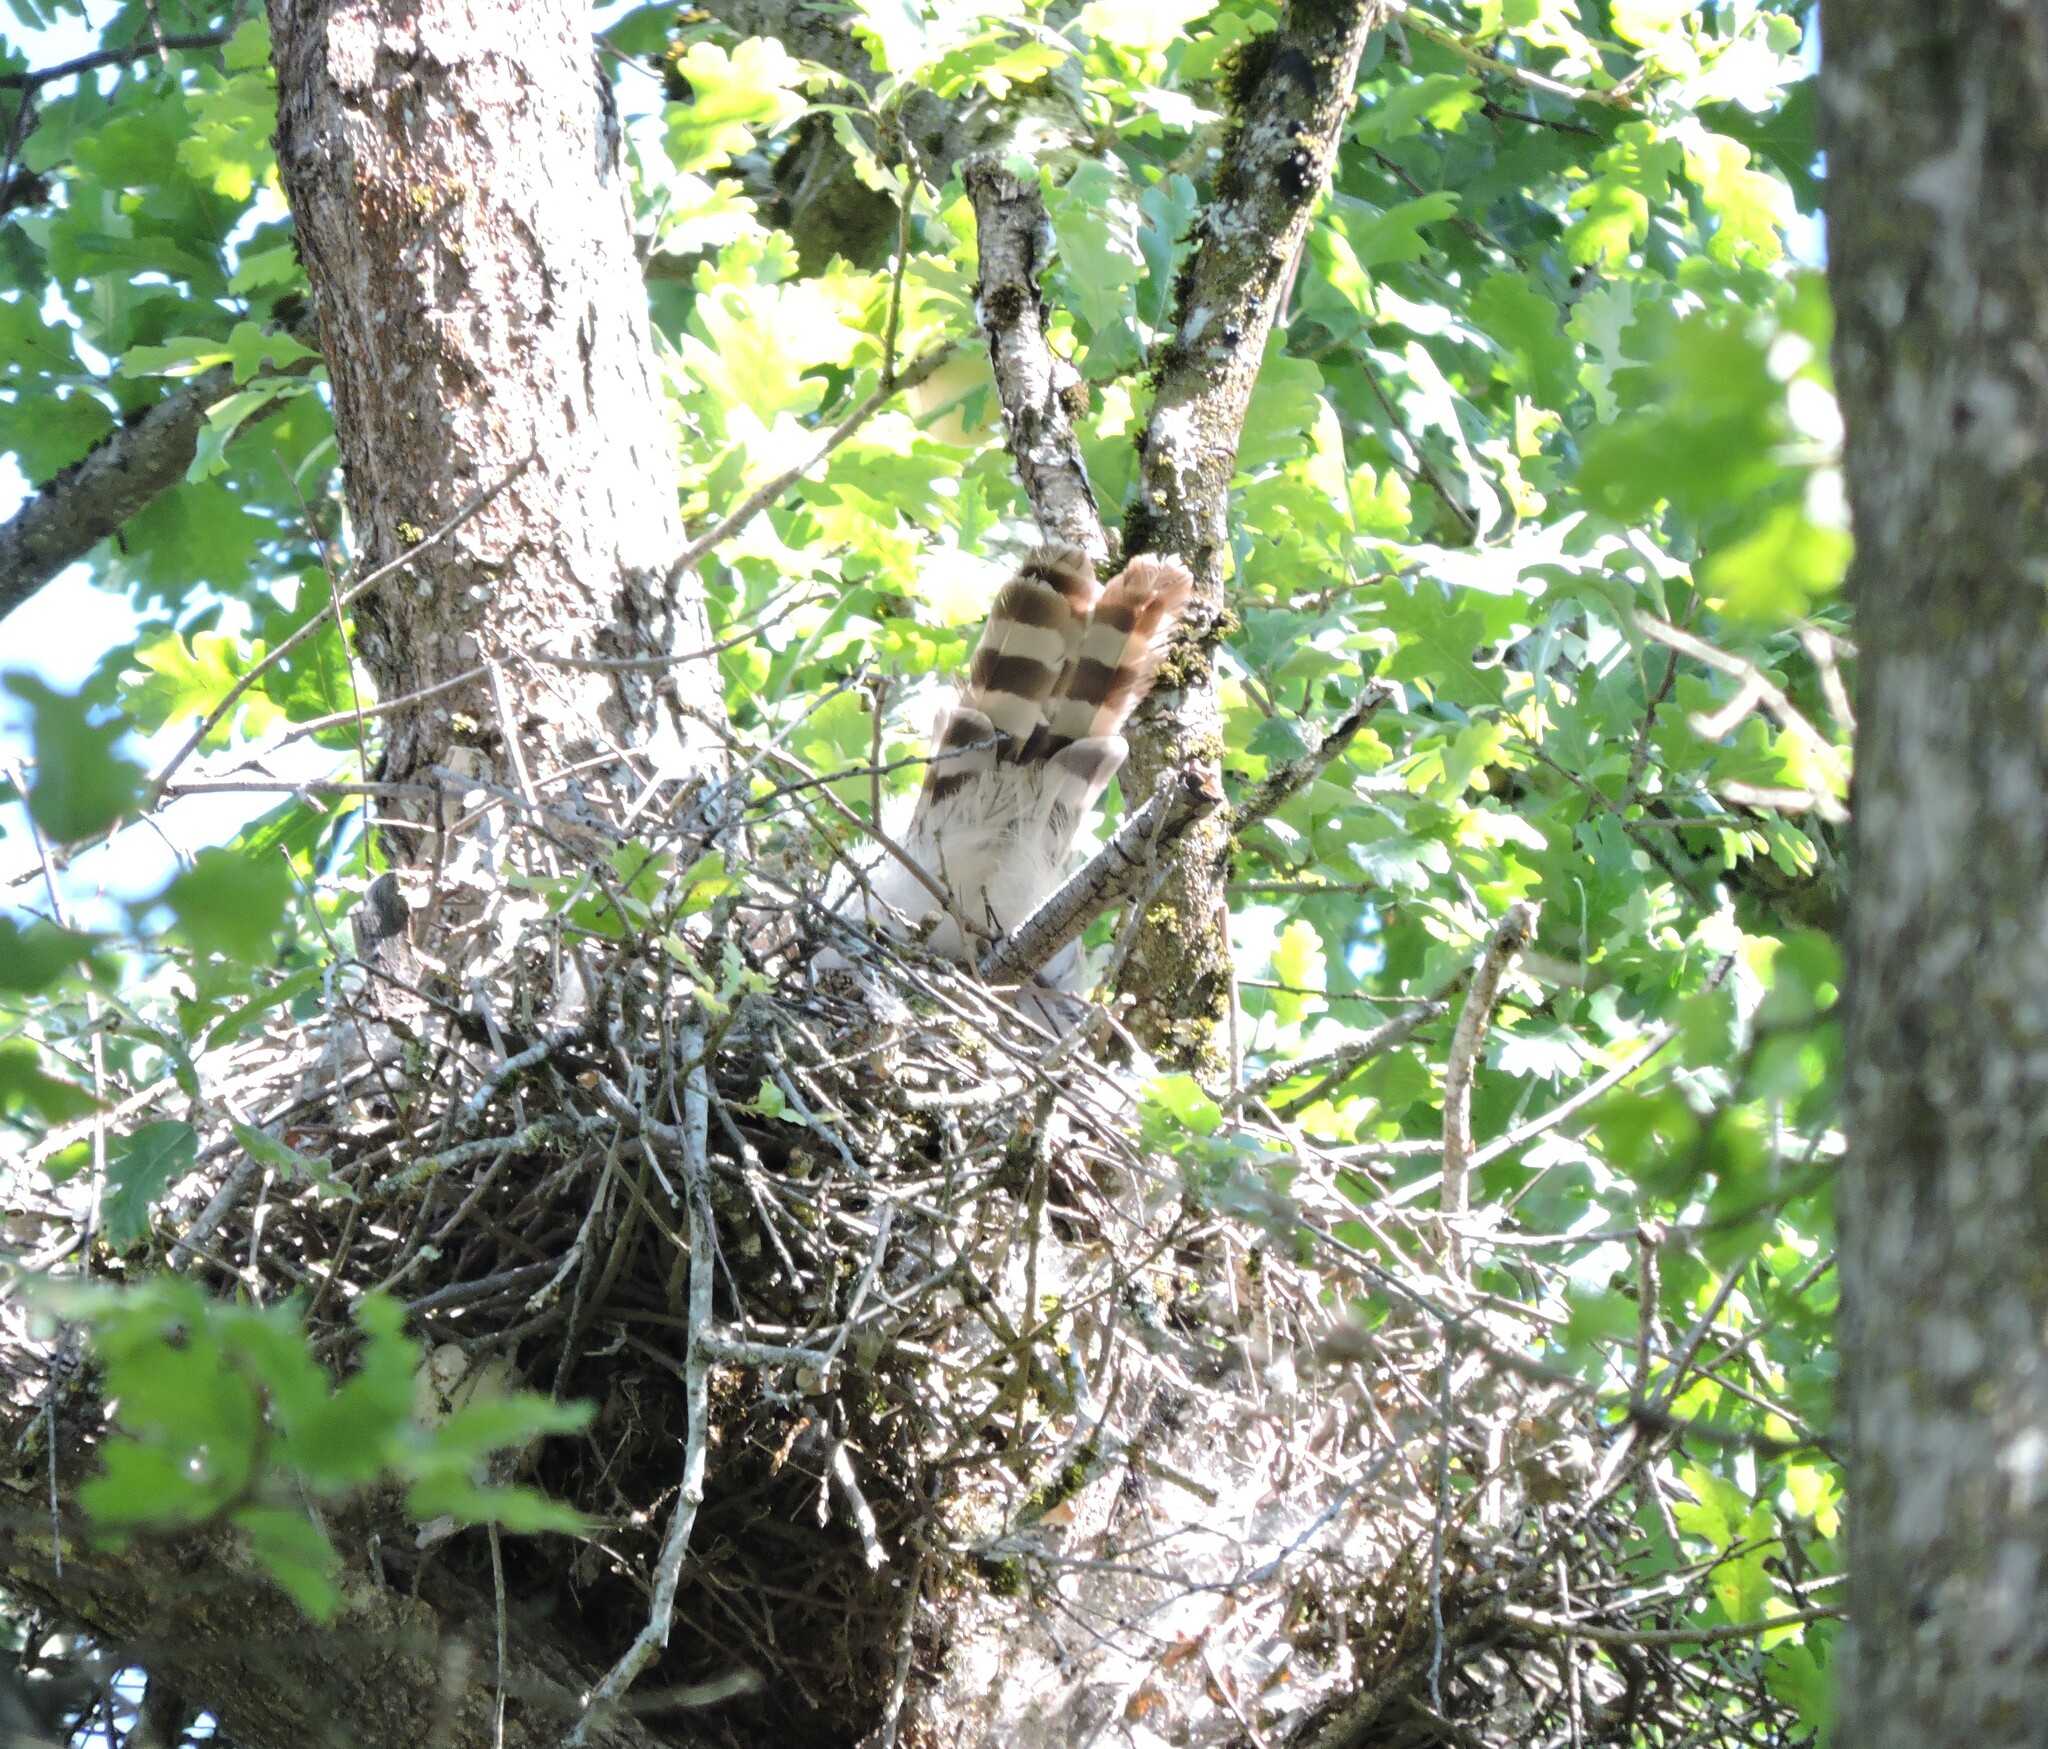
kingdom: Animalia
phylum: Chordata
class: Aves
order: Accipitriformes
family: Accipitridae
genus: Accipiter
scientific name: Accipiter cooperii
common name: Cooper's hawk
